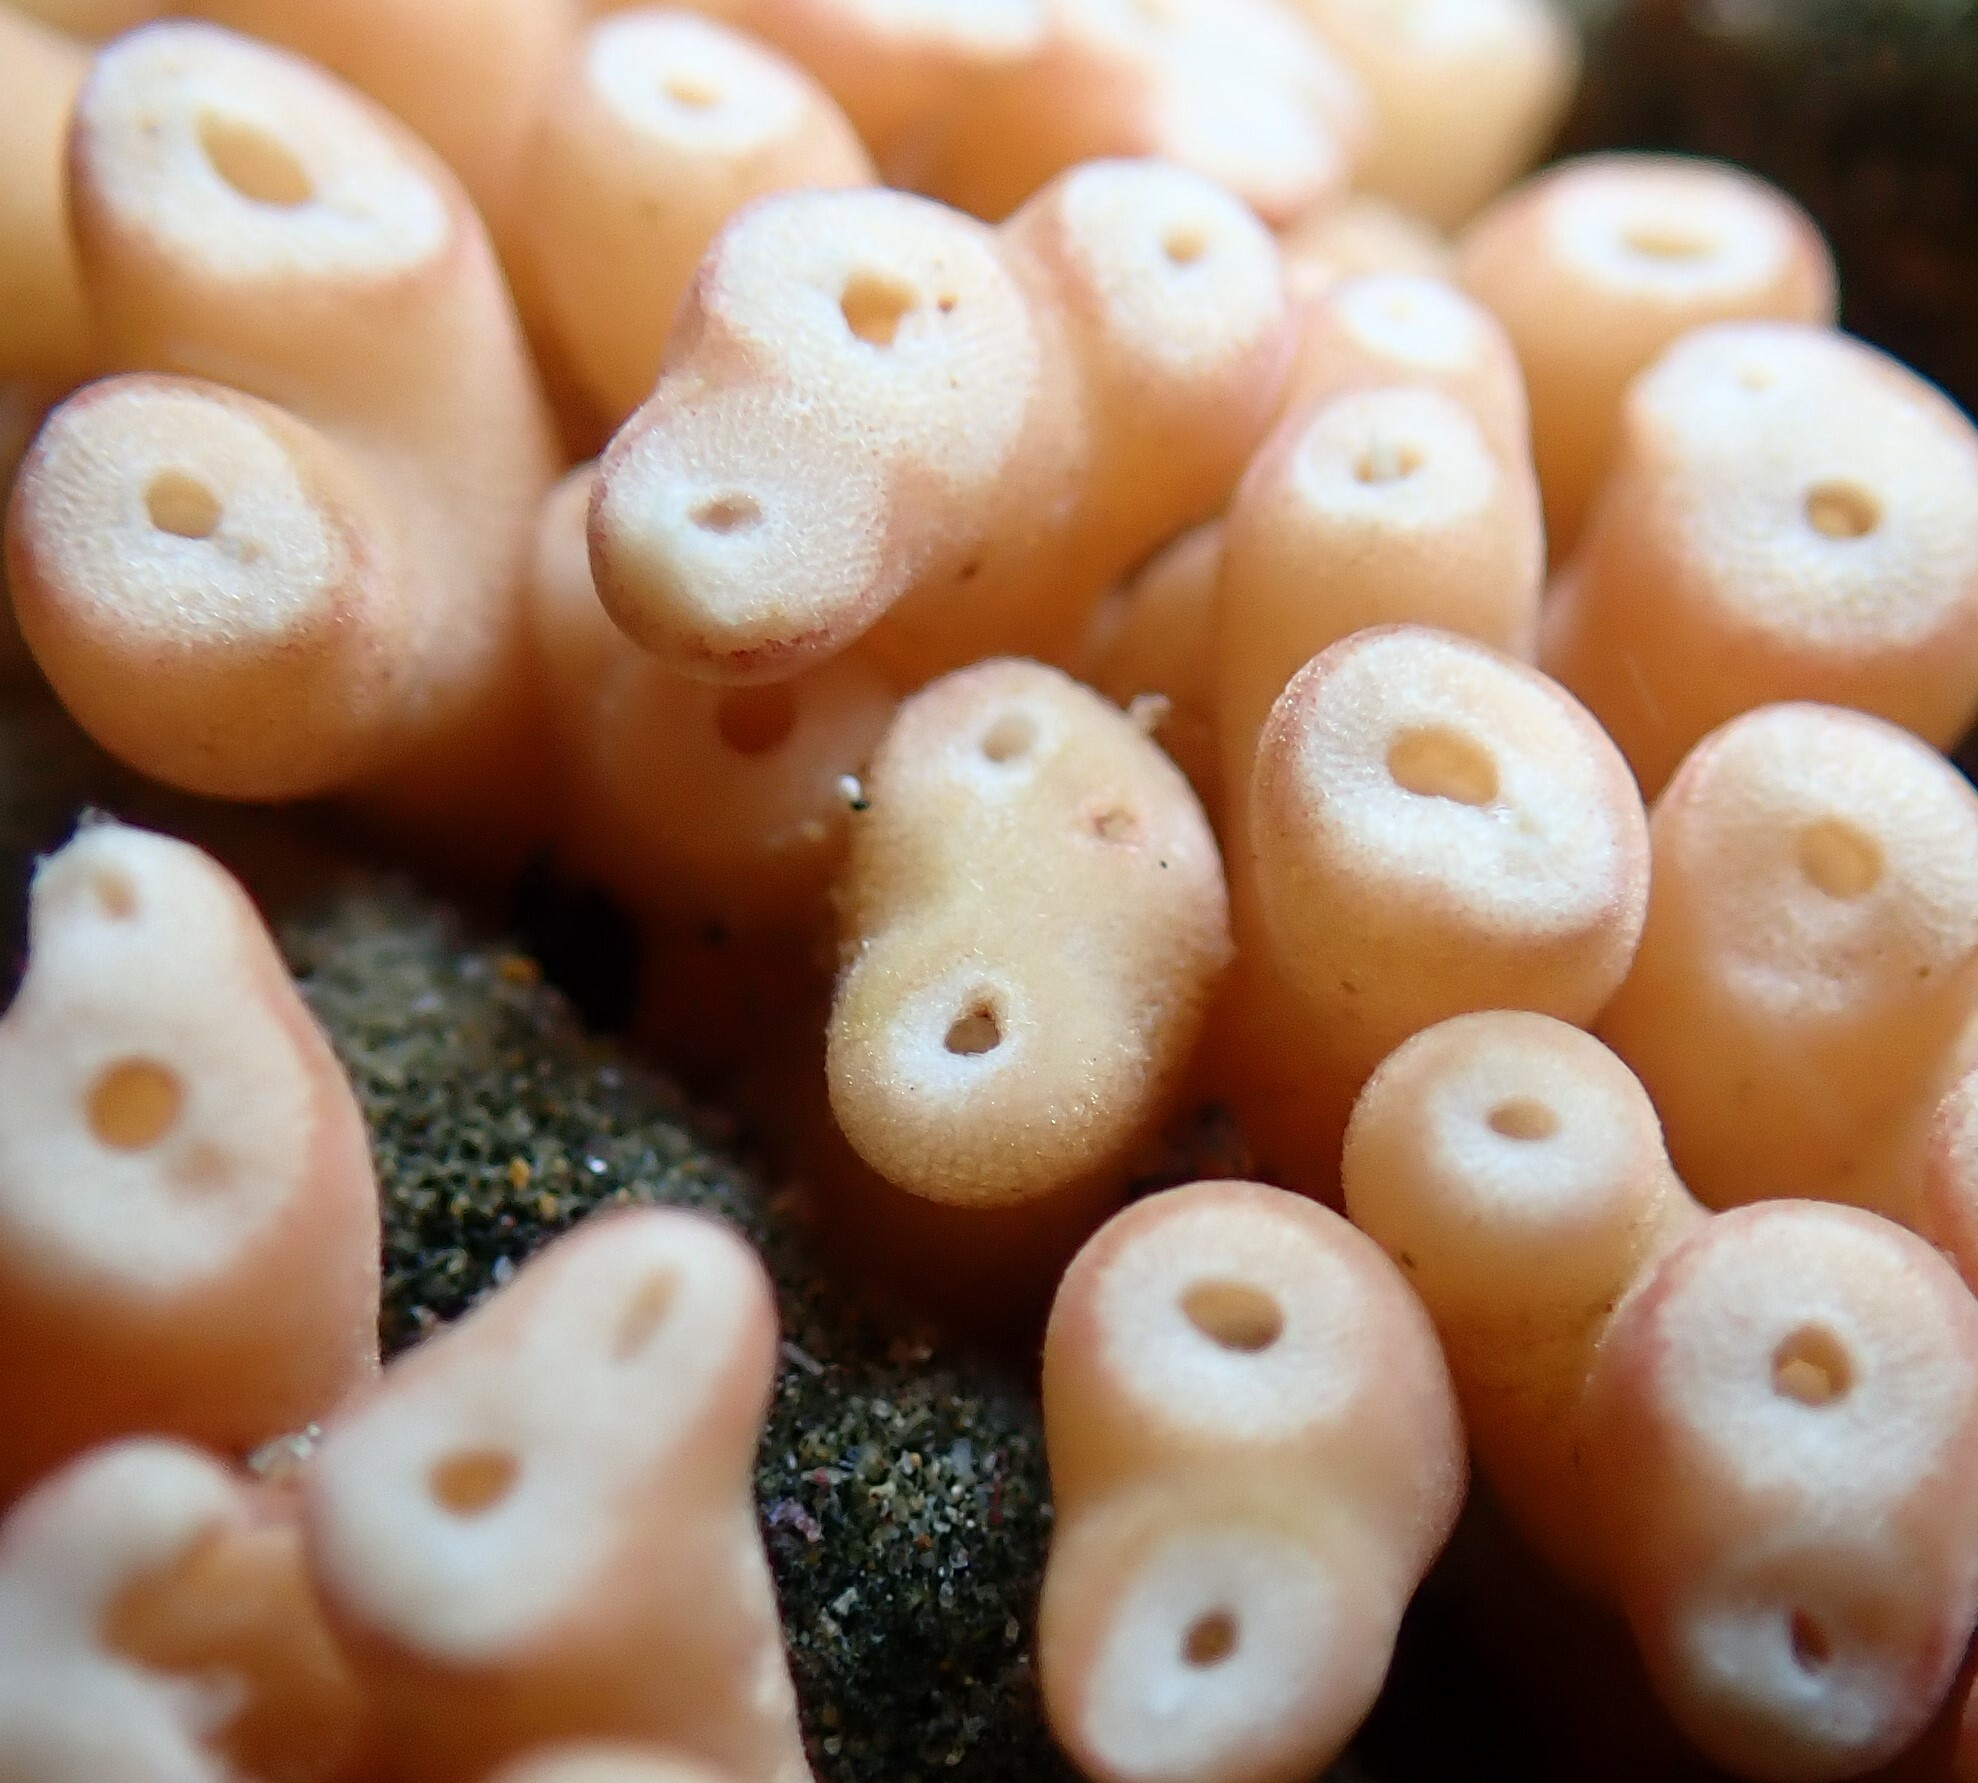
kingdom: Animalia
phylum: Porifera
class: Calcarea
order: Leucosolenida
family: Syconidae
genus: Sycon
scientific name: Sycon capricorn
